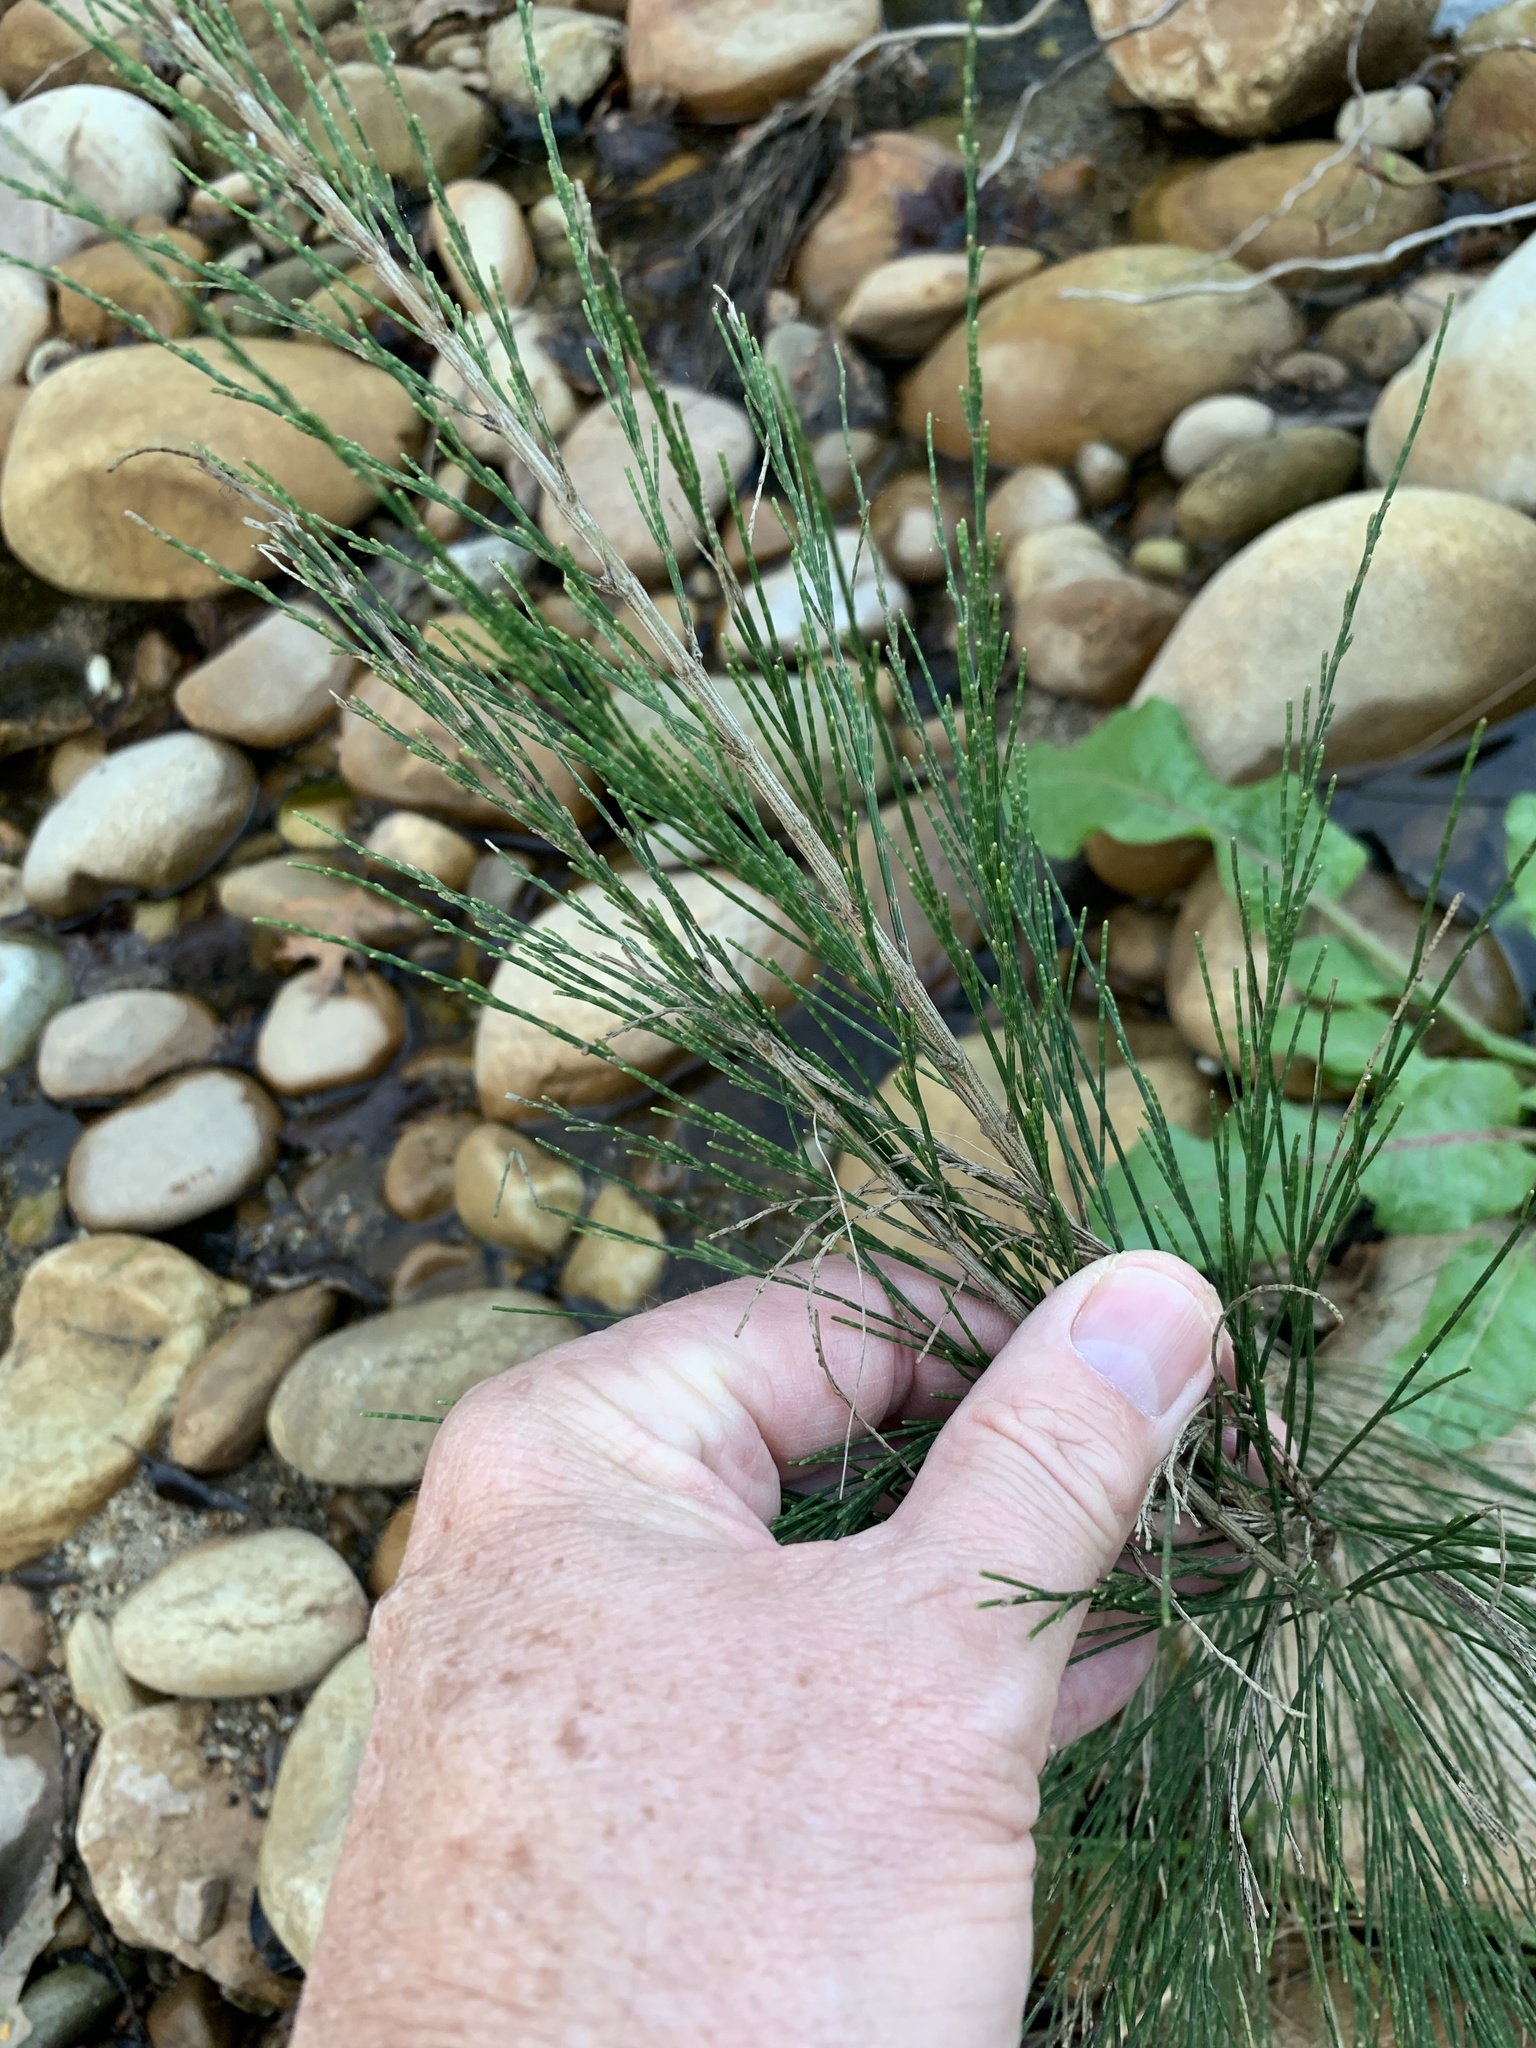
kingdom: Plantae
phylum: Tracheophyta
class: Magnoliopsida
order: Fagales
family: Casuarinaceae
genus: Casuarina
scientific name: Casuarina cunninghamiana
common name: River sheoak
